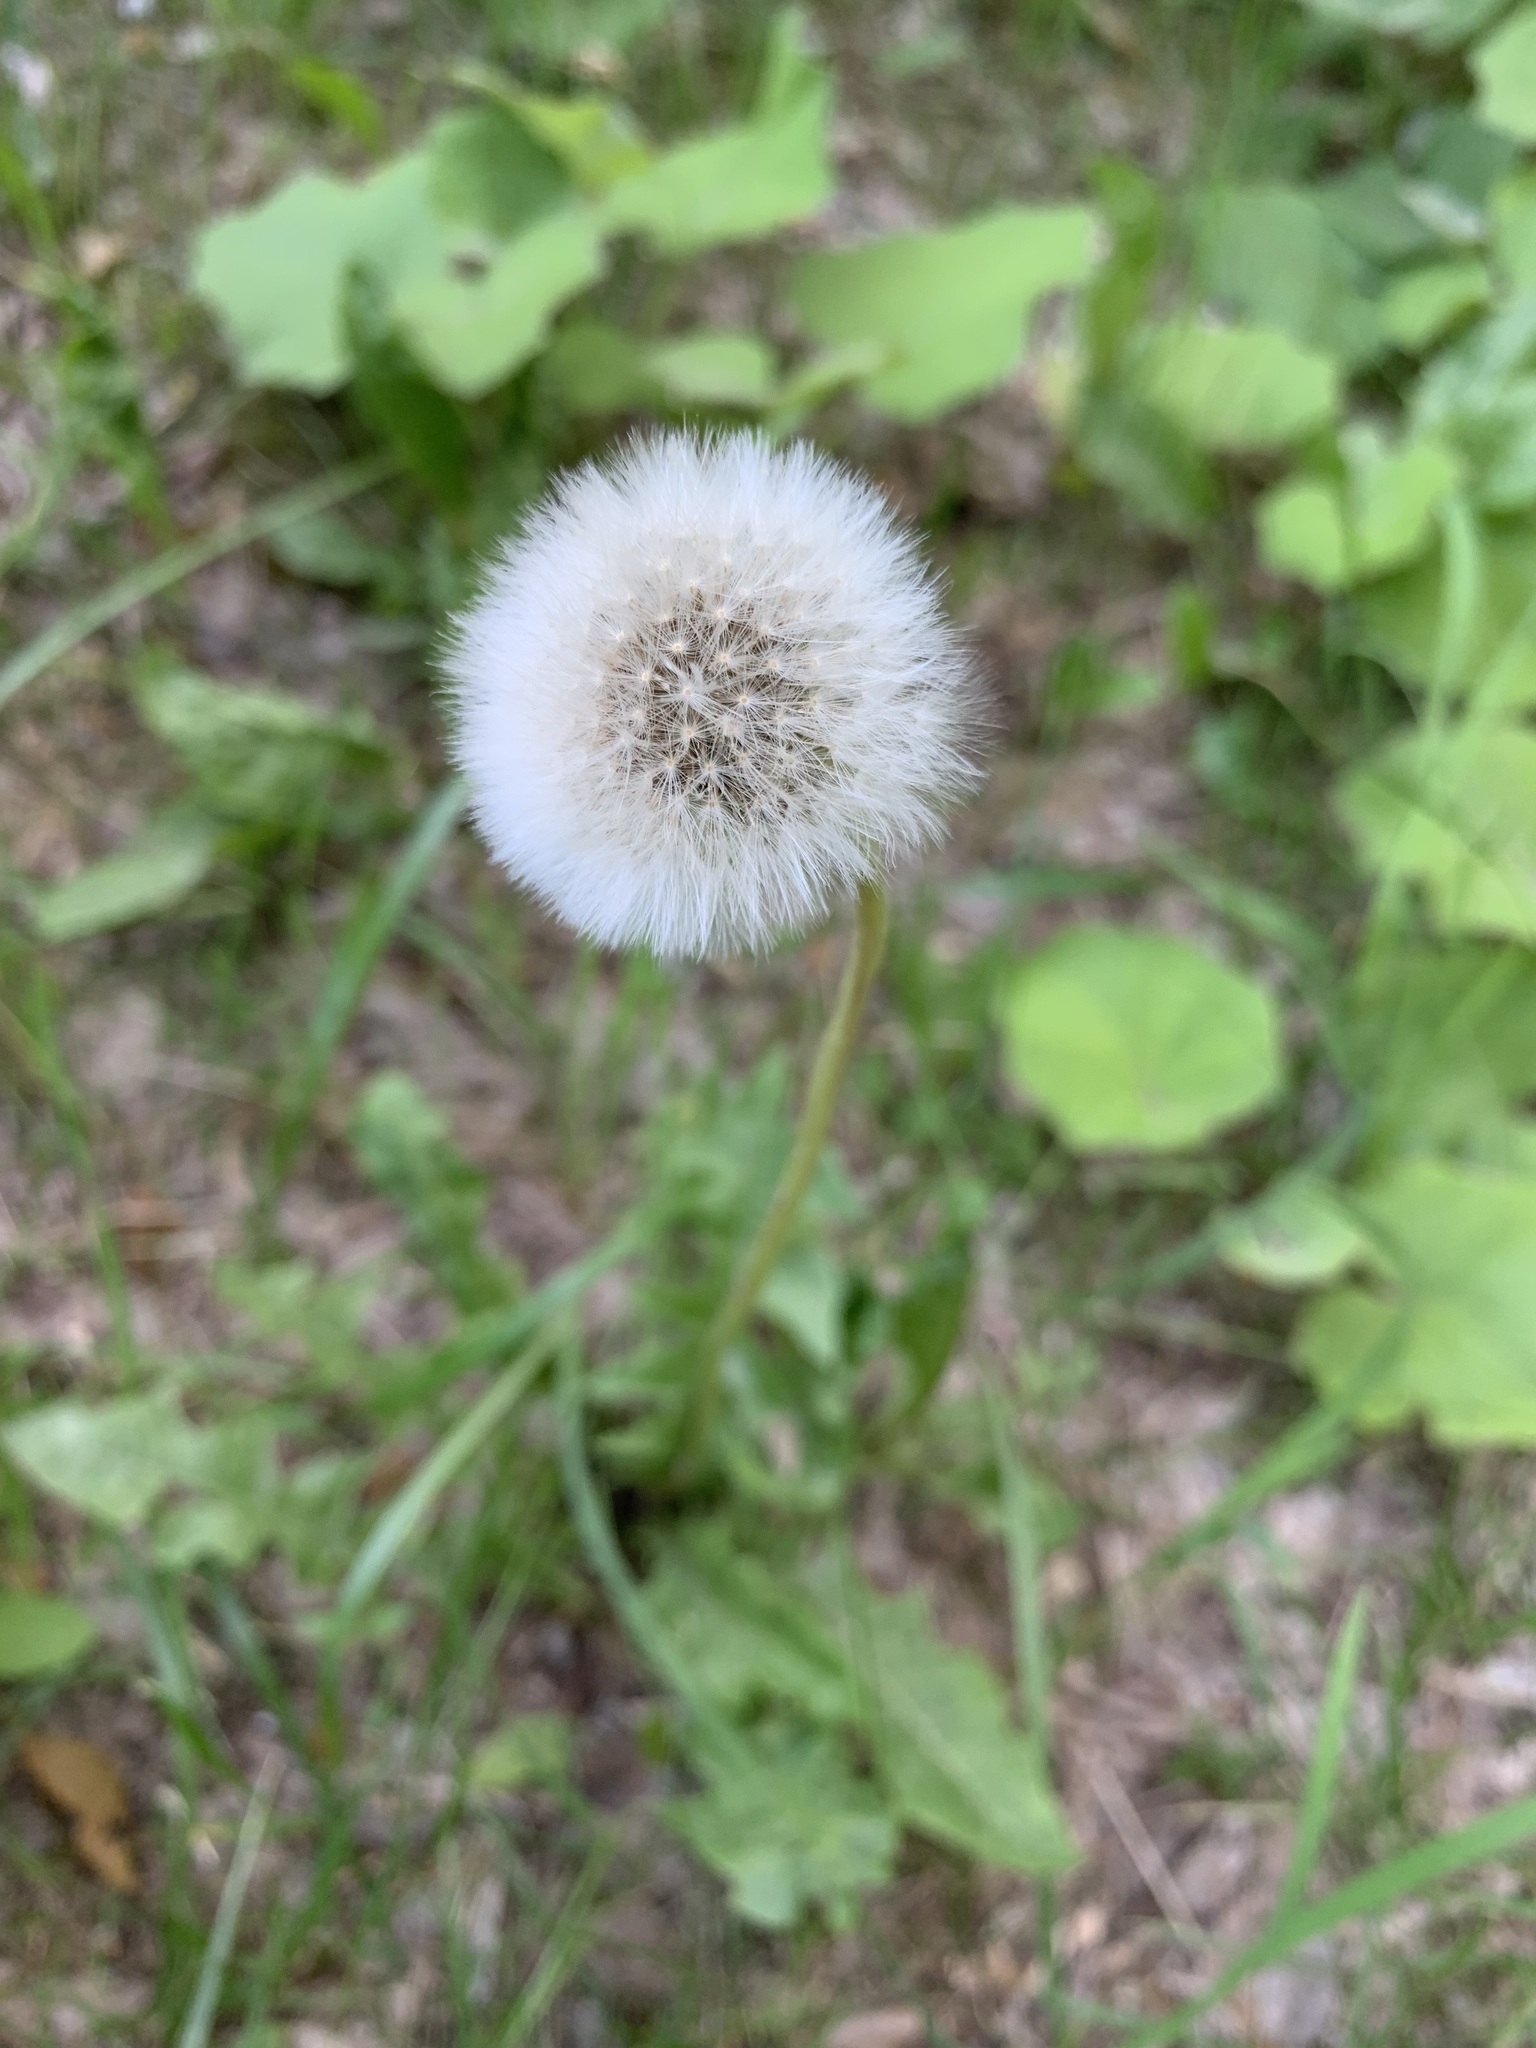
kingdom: Plantae
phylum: Tracheophyta
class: Magnoliopsida
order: Asterales
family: Asteraceae
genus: Taraxacum
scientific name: Taraxacum officinale
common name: Common dandelion
